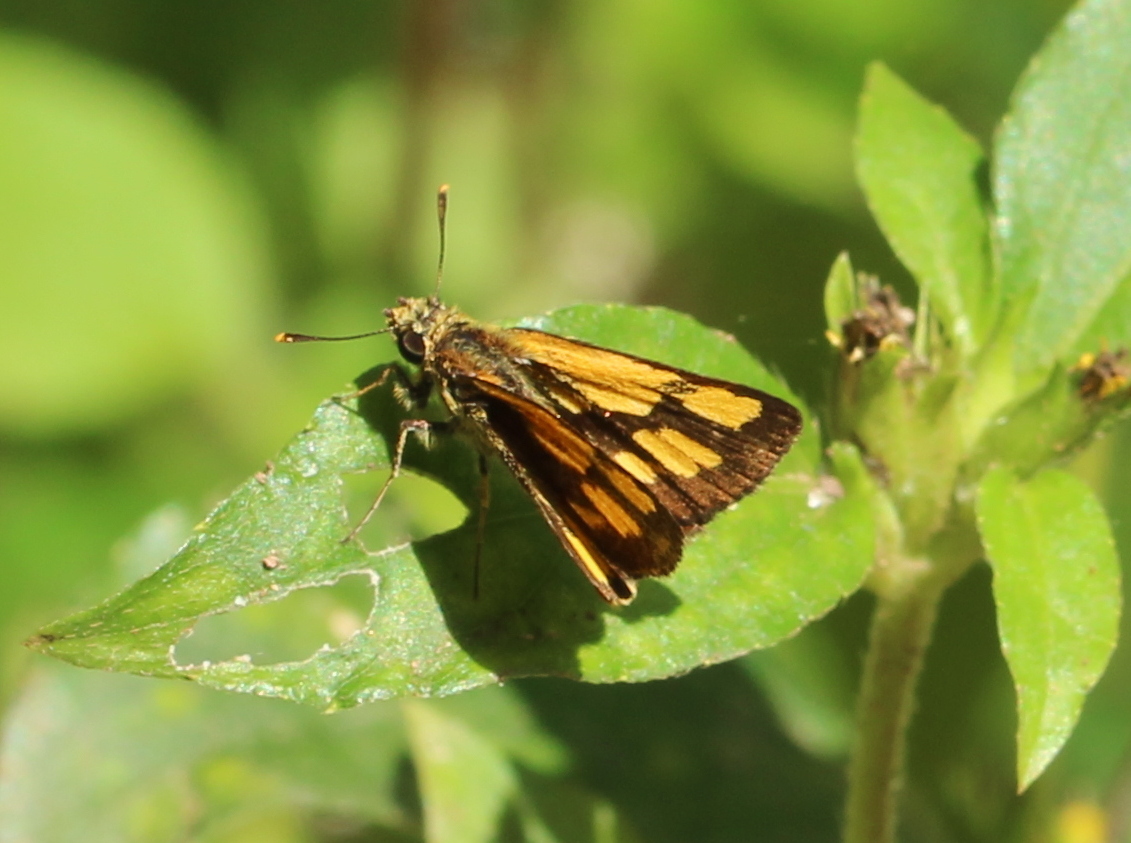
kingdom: Animalia
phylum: Arthropoda
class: Insecta
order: Lepidoptera
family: Hesperiidae
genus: Ampittia
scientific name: Ampittia dioscorides
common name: Common bush hopper
